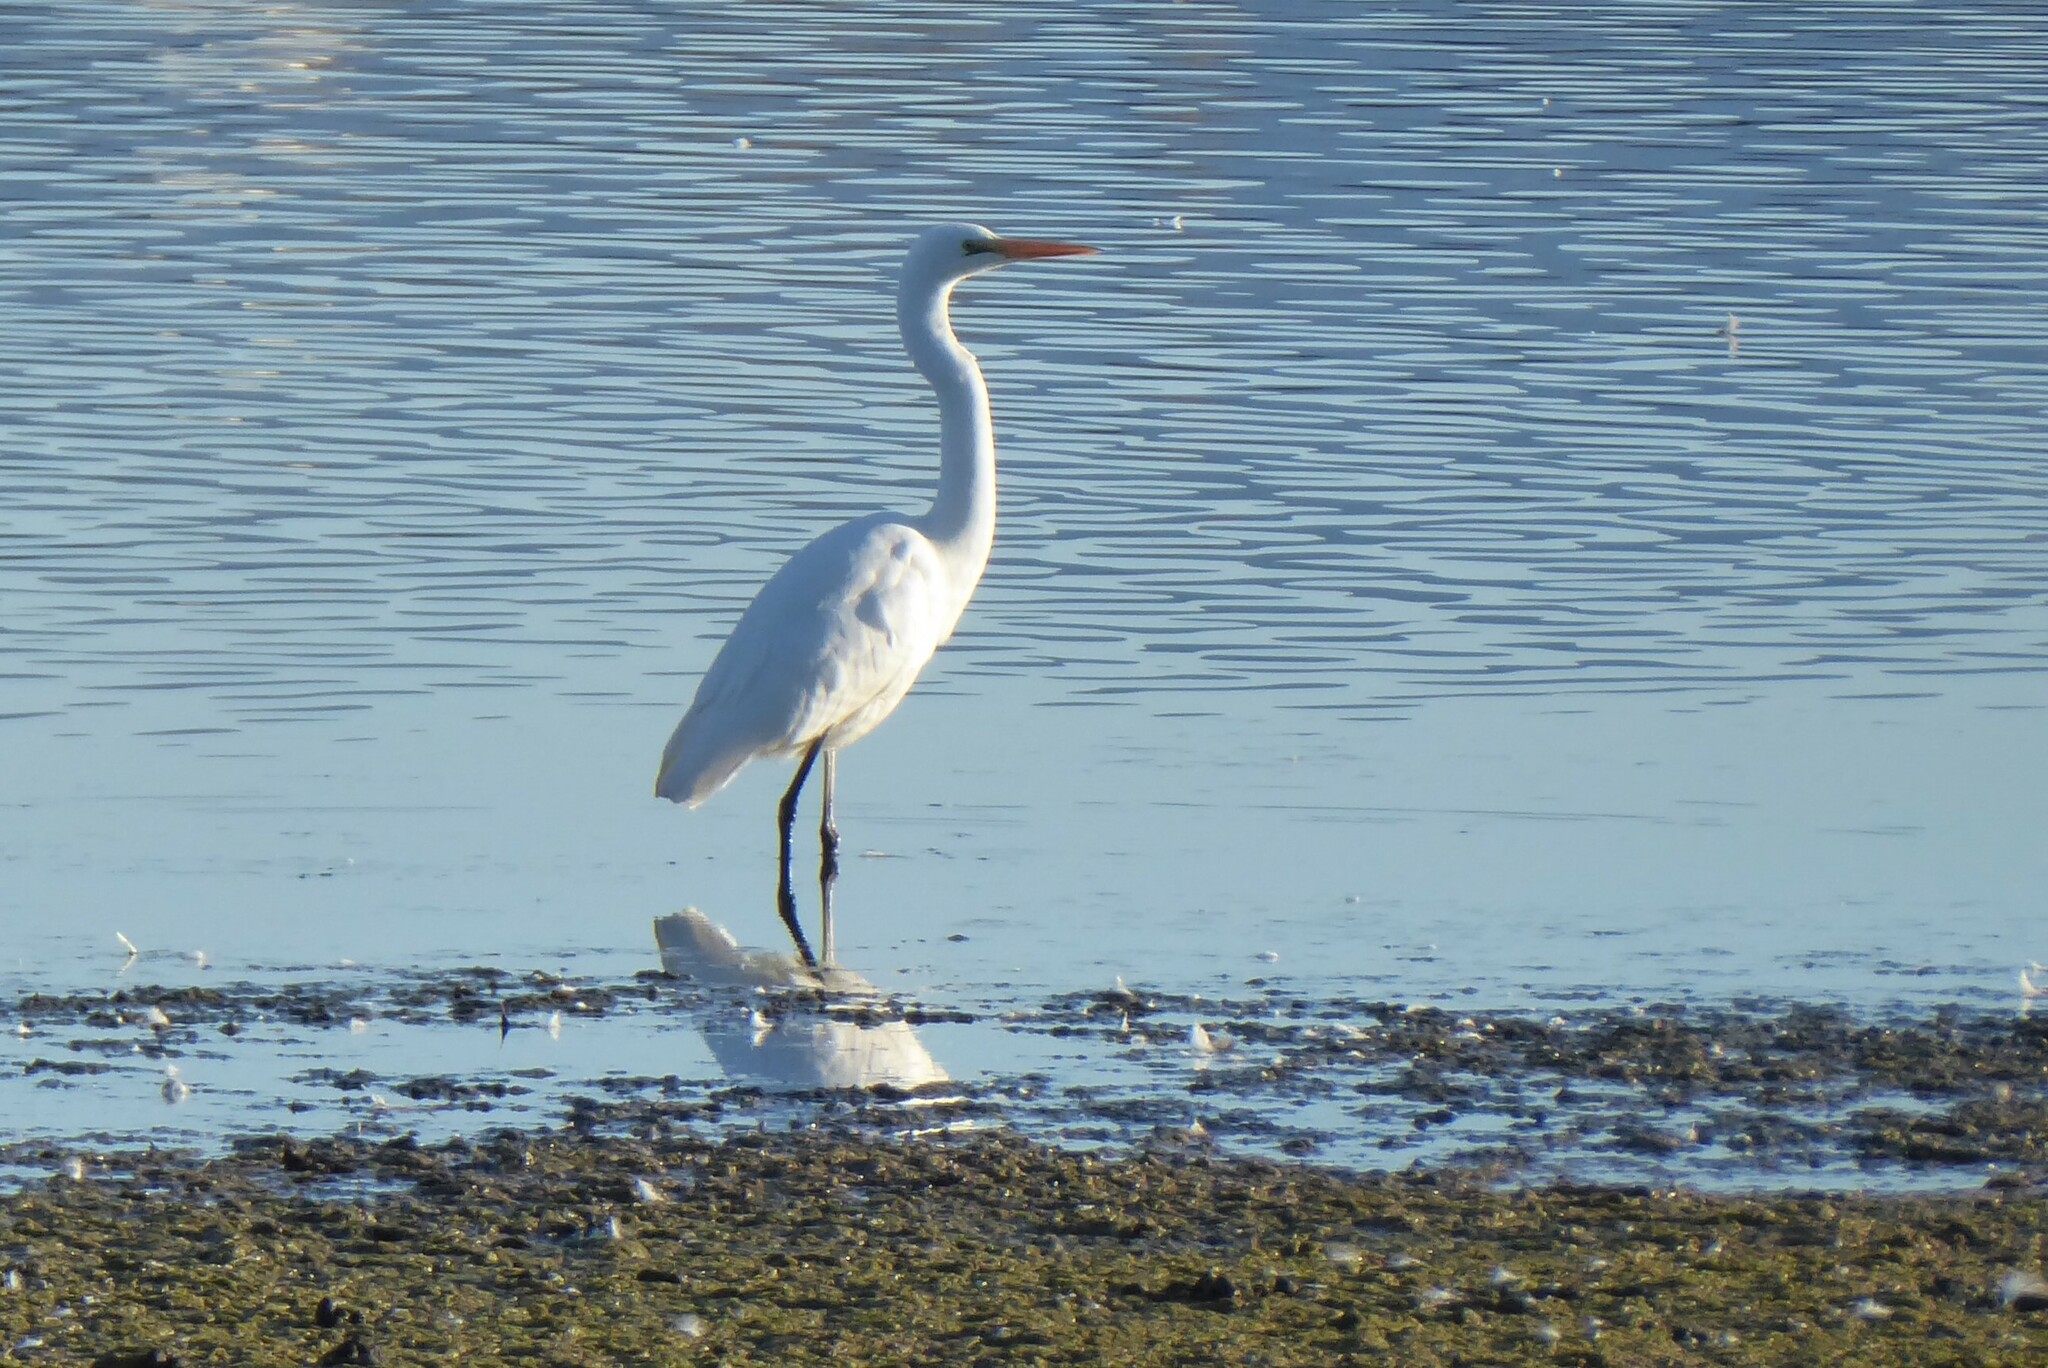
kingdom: Animalia
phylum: Chordata
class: Aves
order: Pelecaniformes
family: Ardeidae
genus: Ardea
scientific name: Ardea modesta
